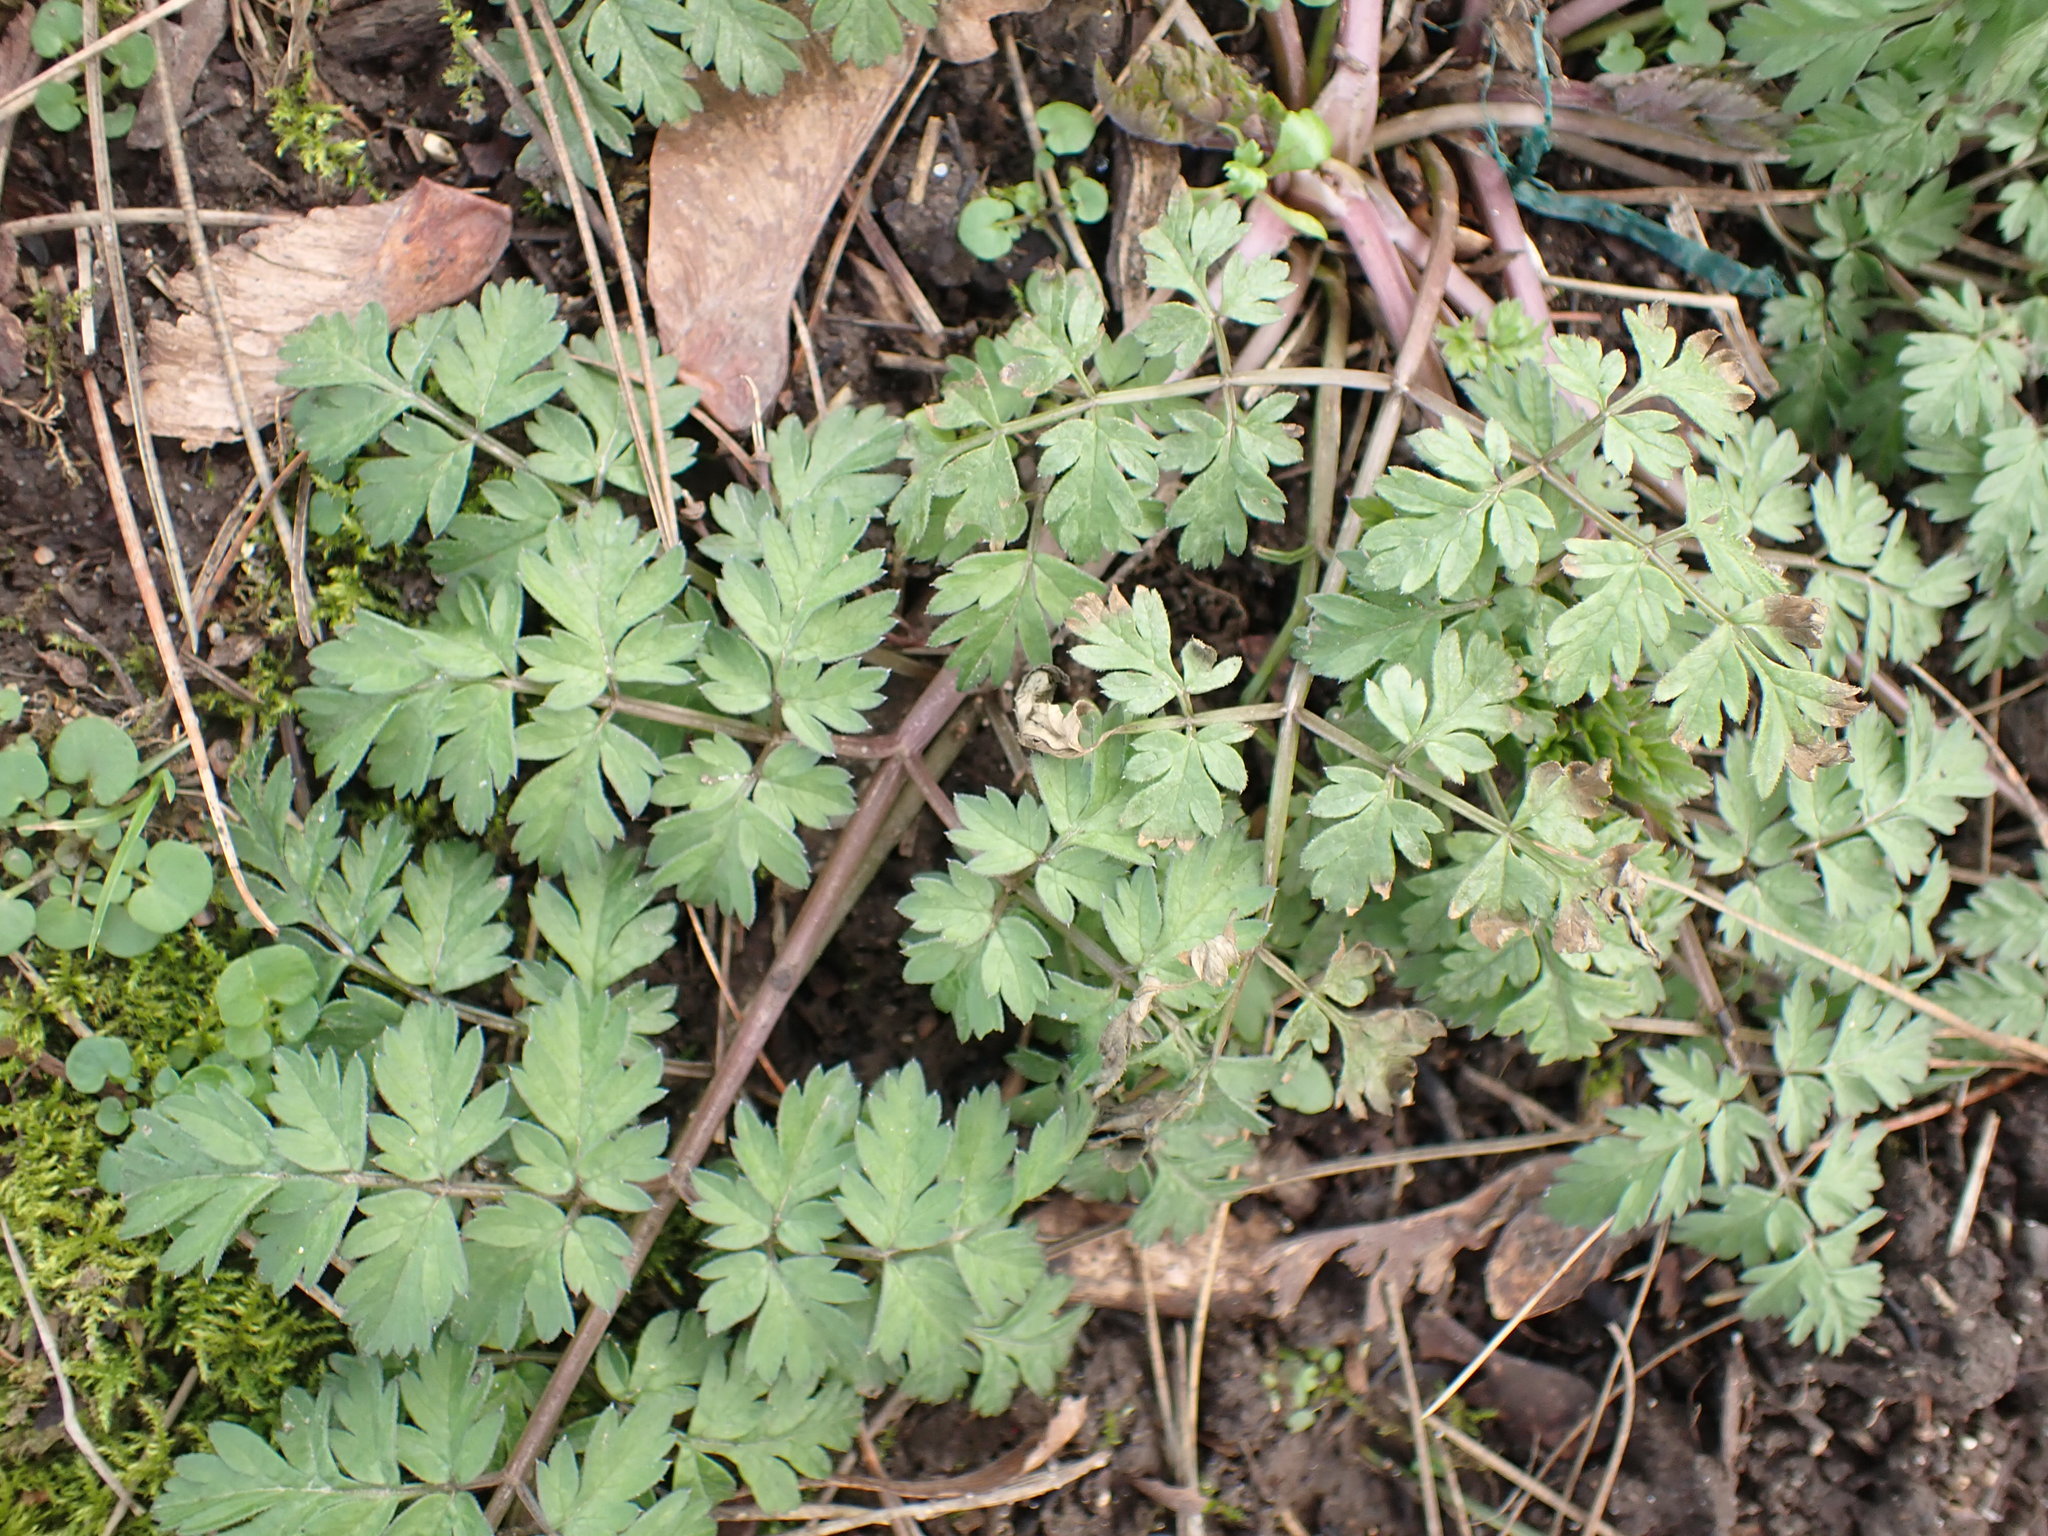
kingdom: Plantae
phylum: Tracheophyta
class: Magnoliopsida
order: Apiales
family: Apiaceae
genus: Anthriscus
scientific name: Anthriscus sylvestris
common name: Cow parsley
